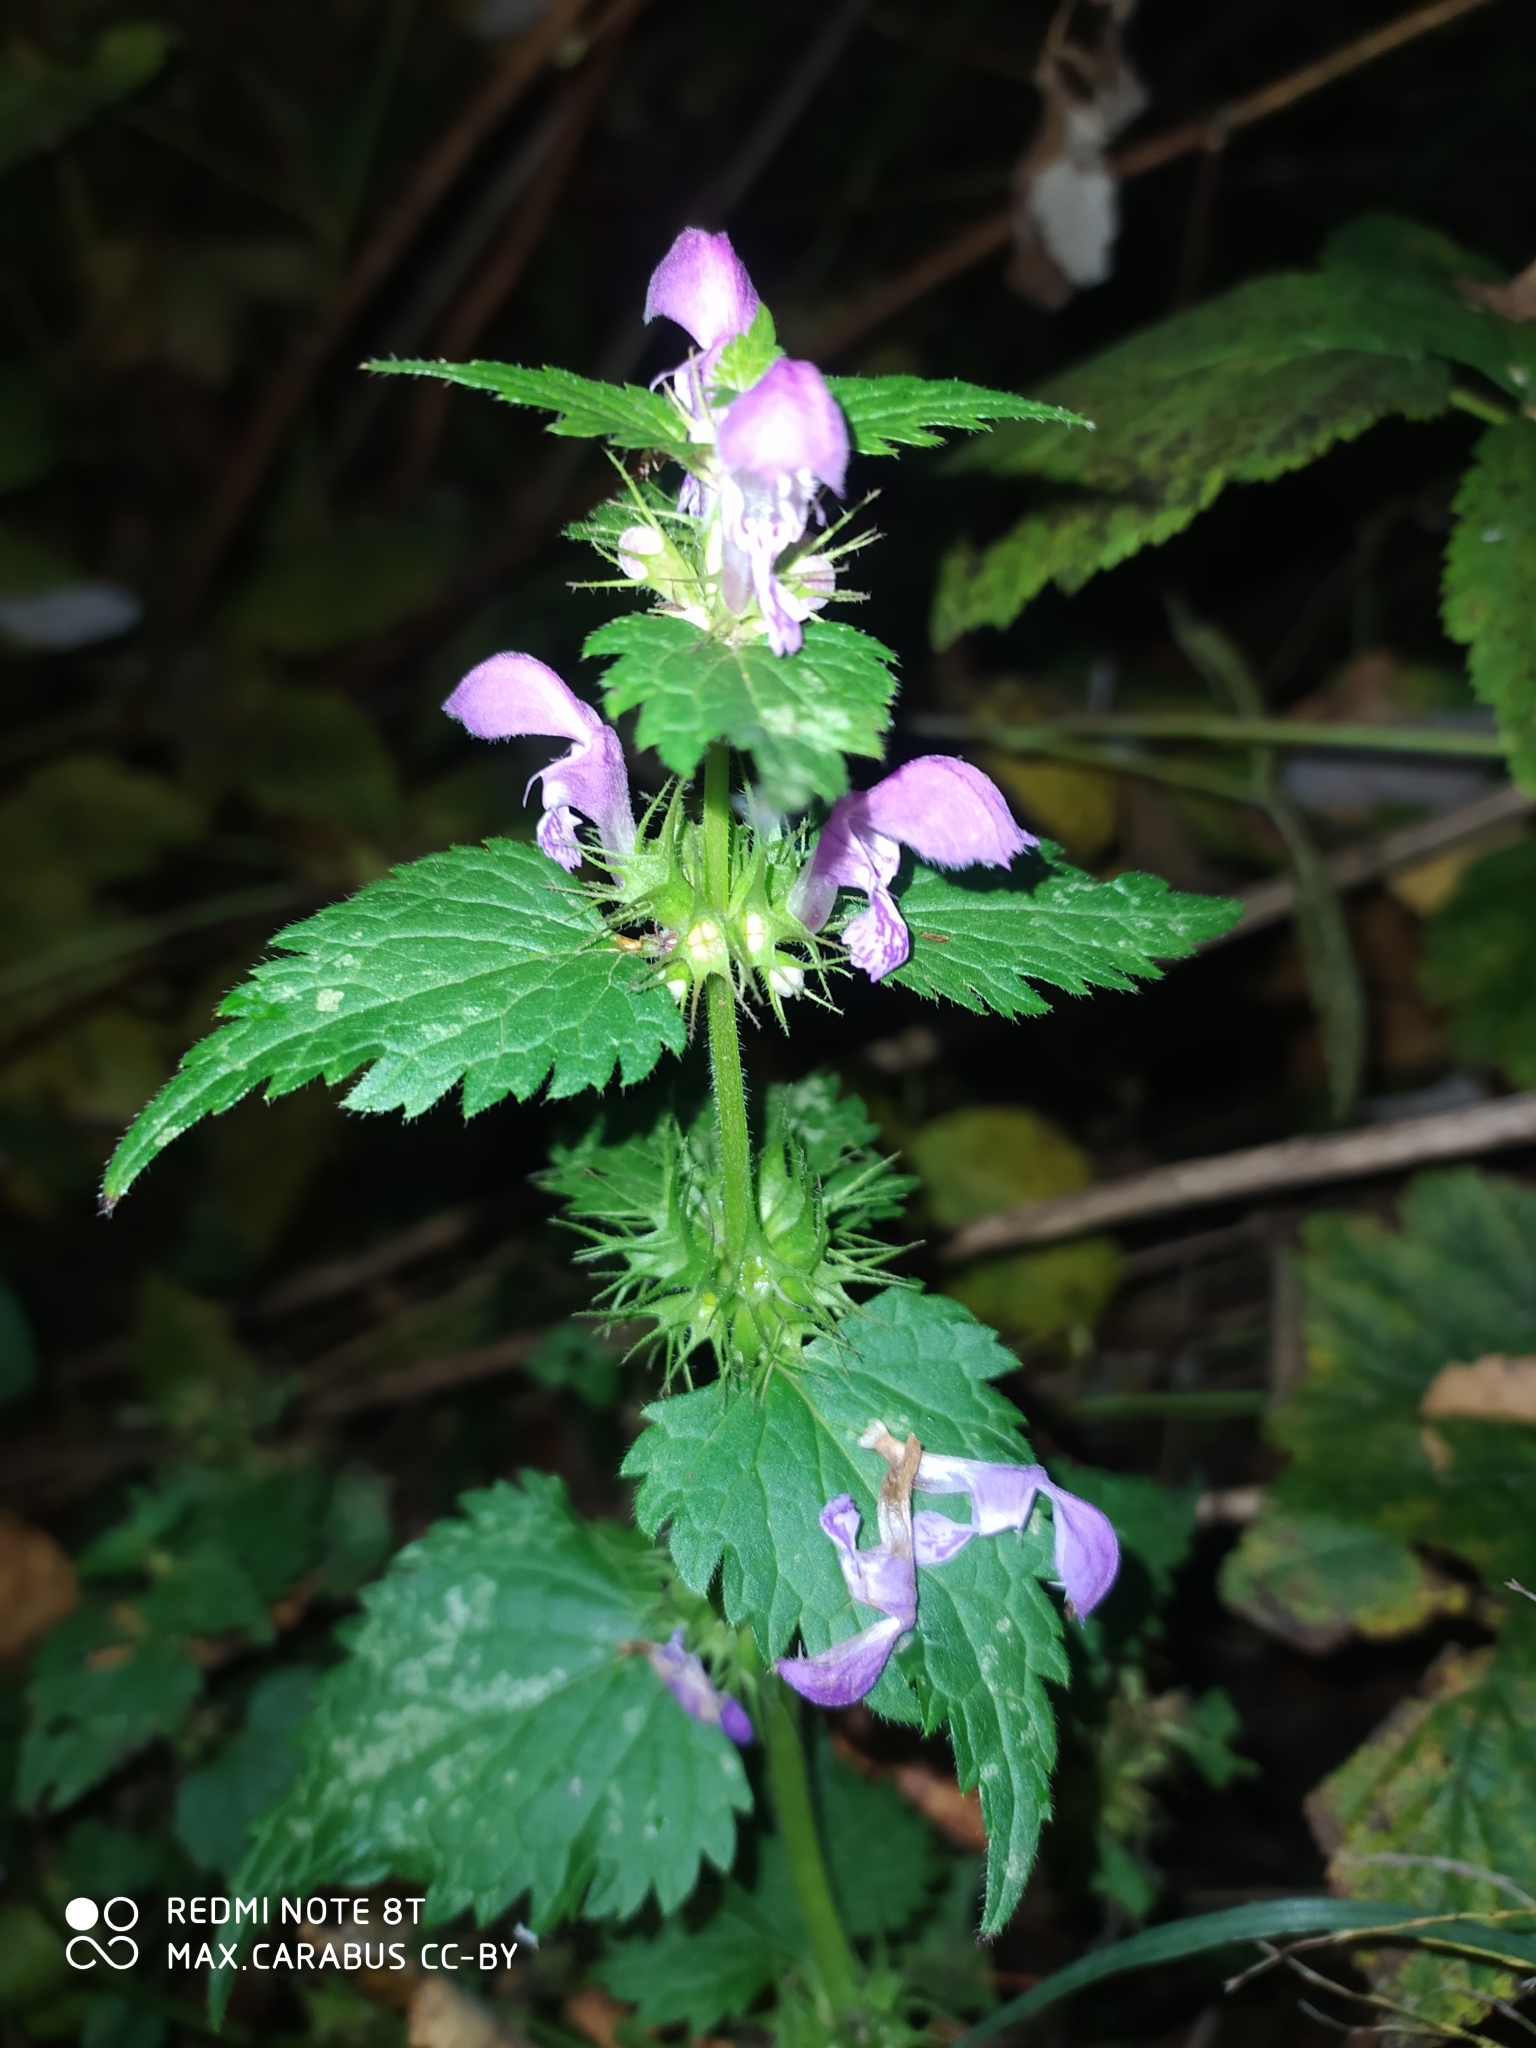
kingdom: Plantae
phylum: Tracheophyta
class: Magnoliopsida
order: Lamiales
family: Lamiaceae
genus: Lamium
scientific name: Lamium maculatum
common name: Spotted dead-nettle
